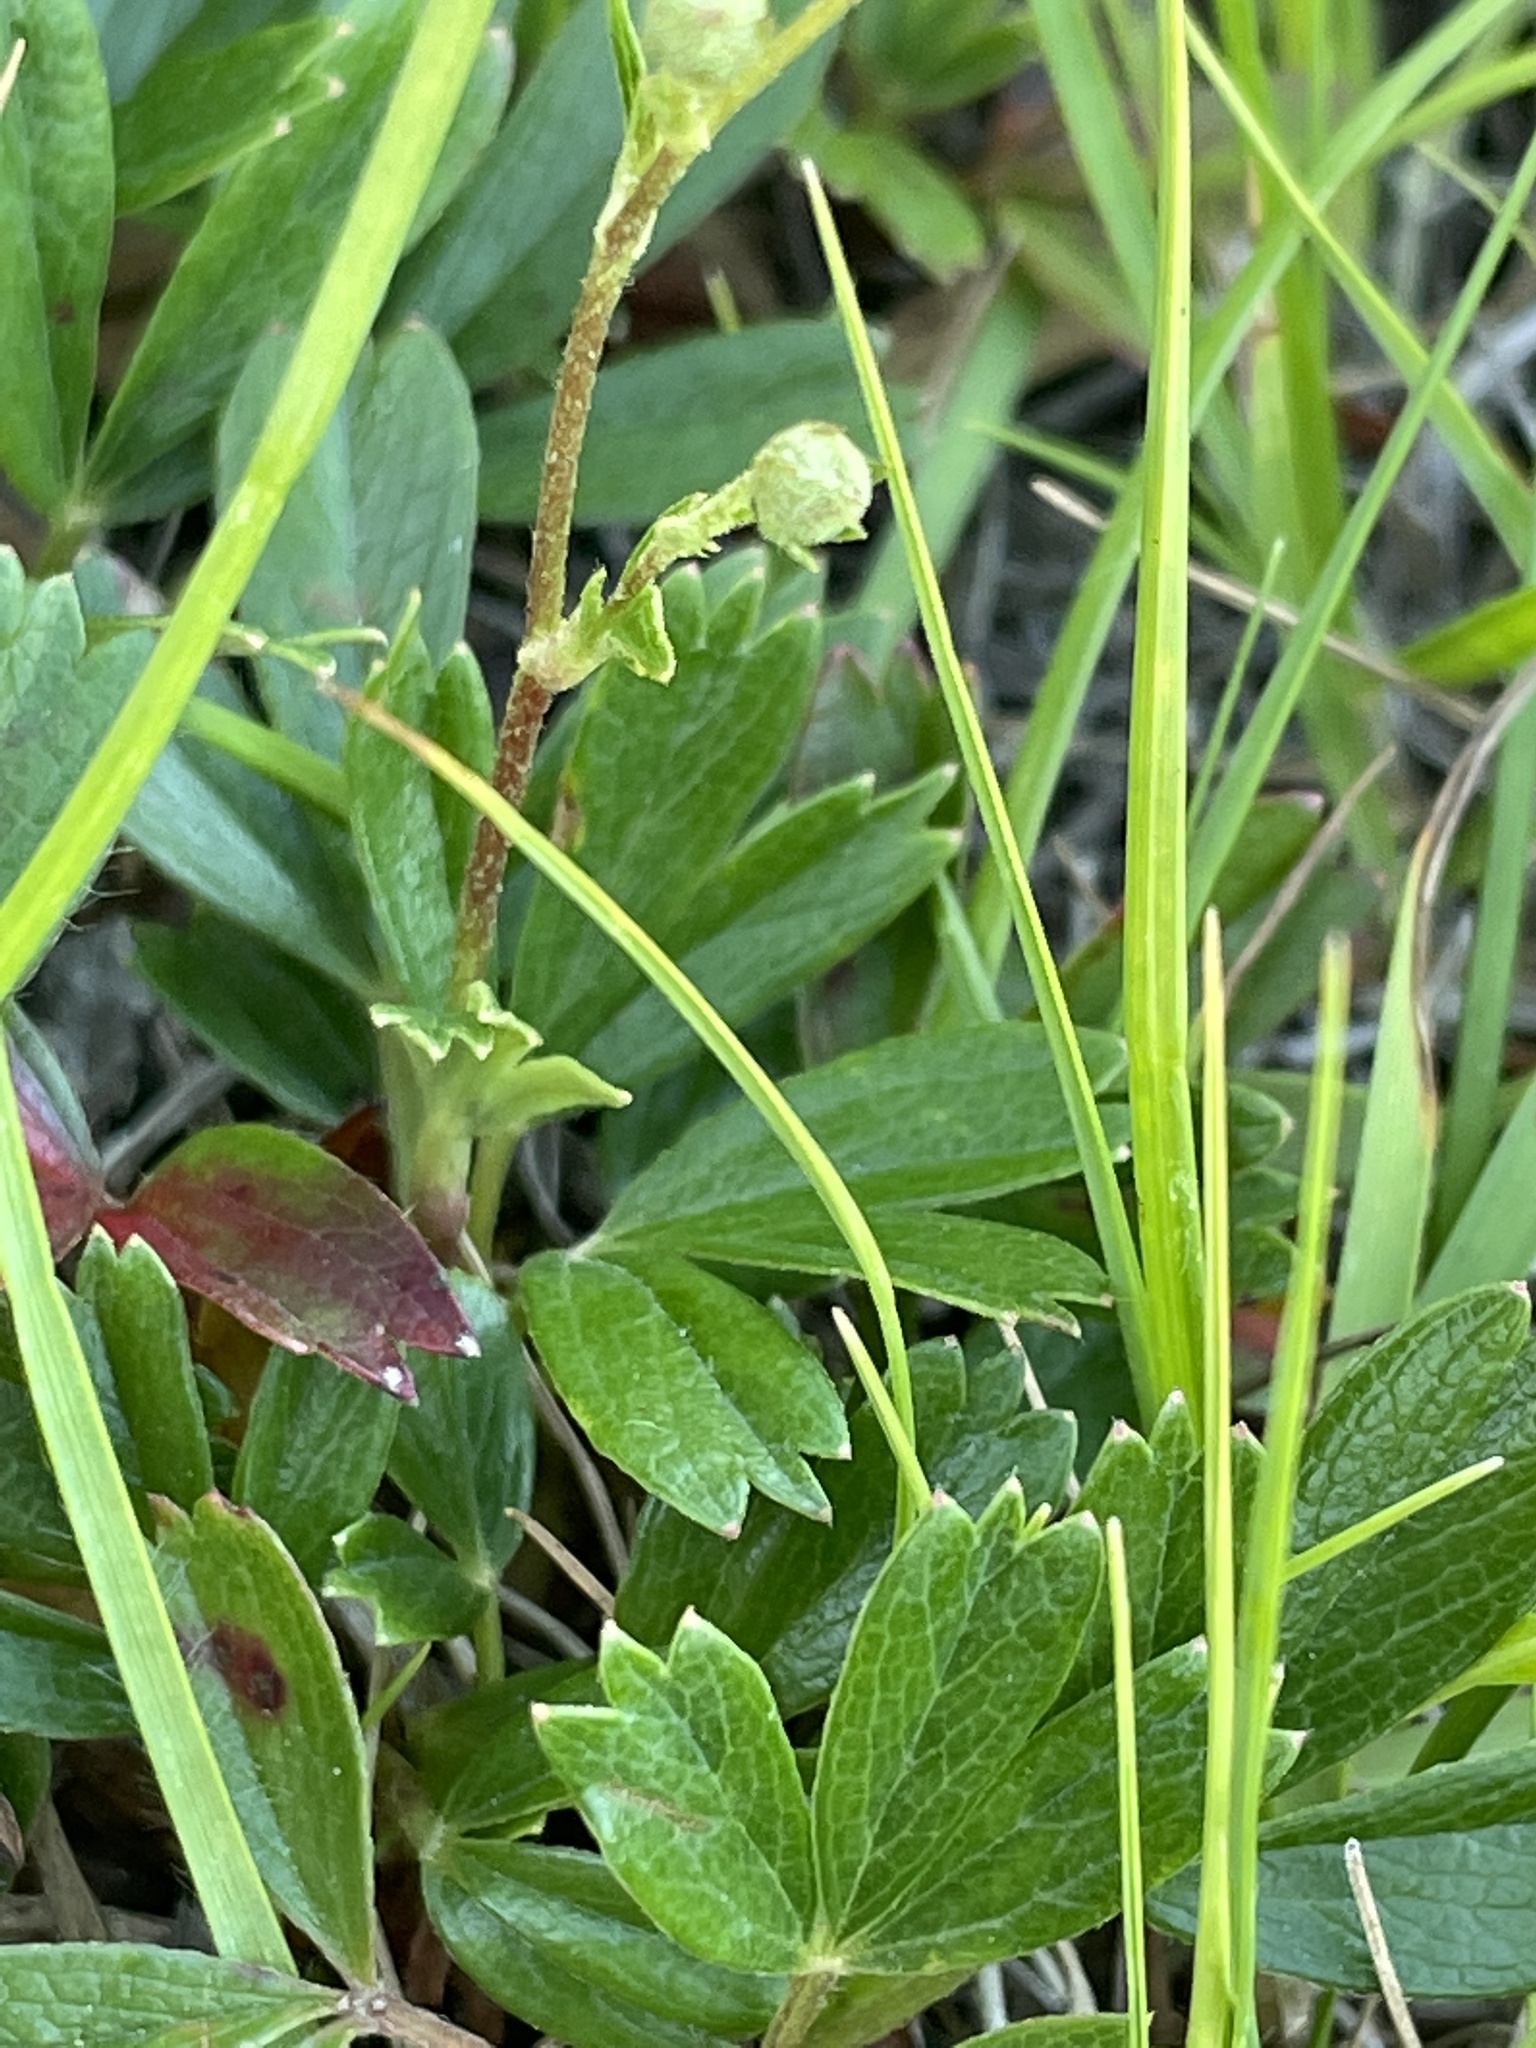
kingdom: Plantae
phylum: Tracheophyta
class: Magnoliopsida
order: Rosales
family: Rosaceae
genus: Sibbaldia
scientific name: Sibbaldia tridentata
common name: Three-toothed cinquefoil
